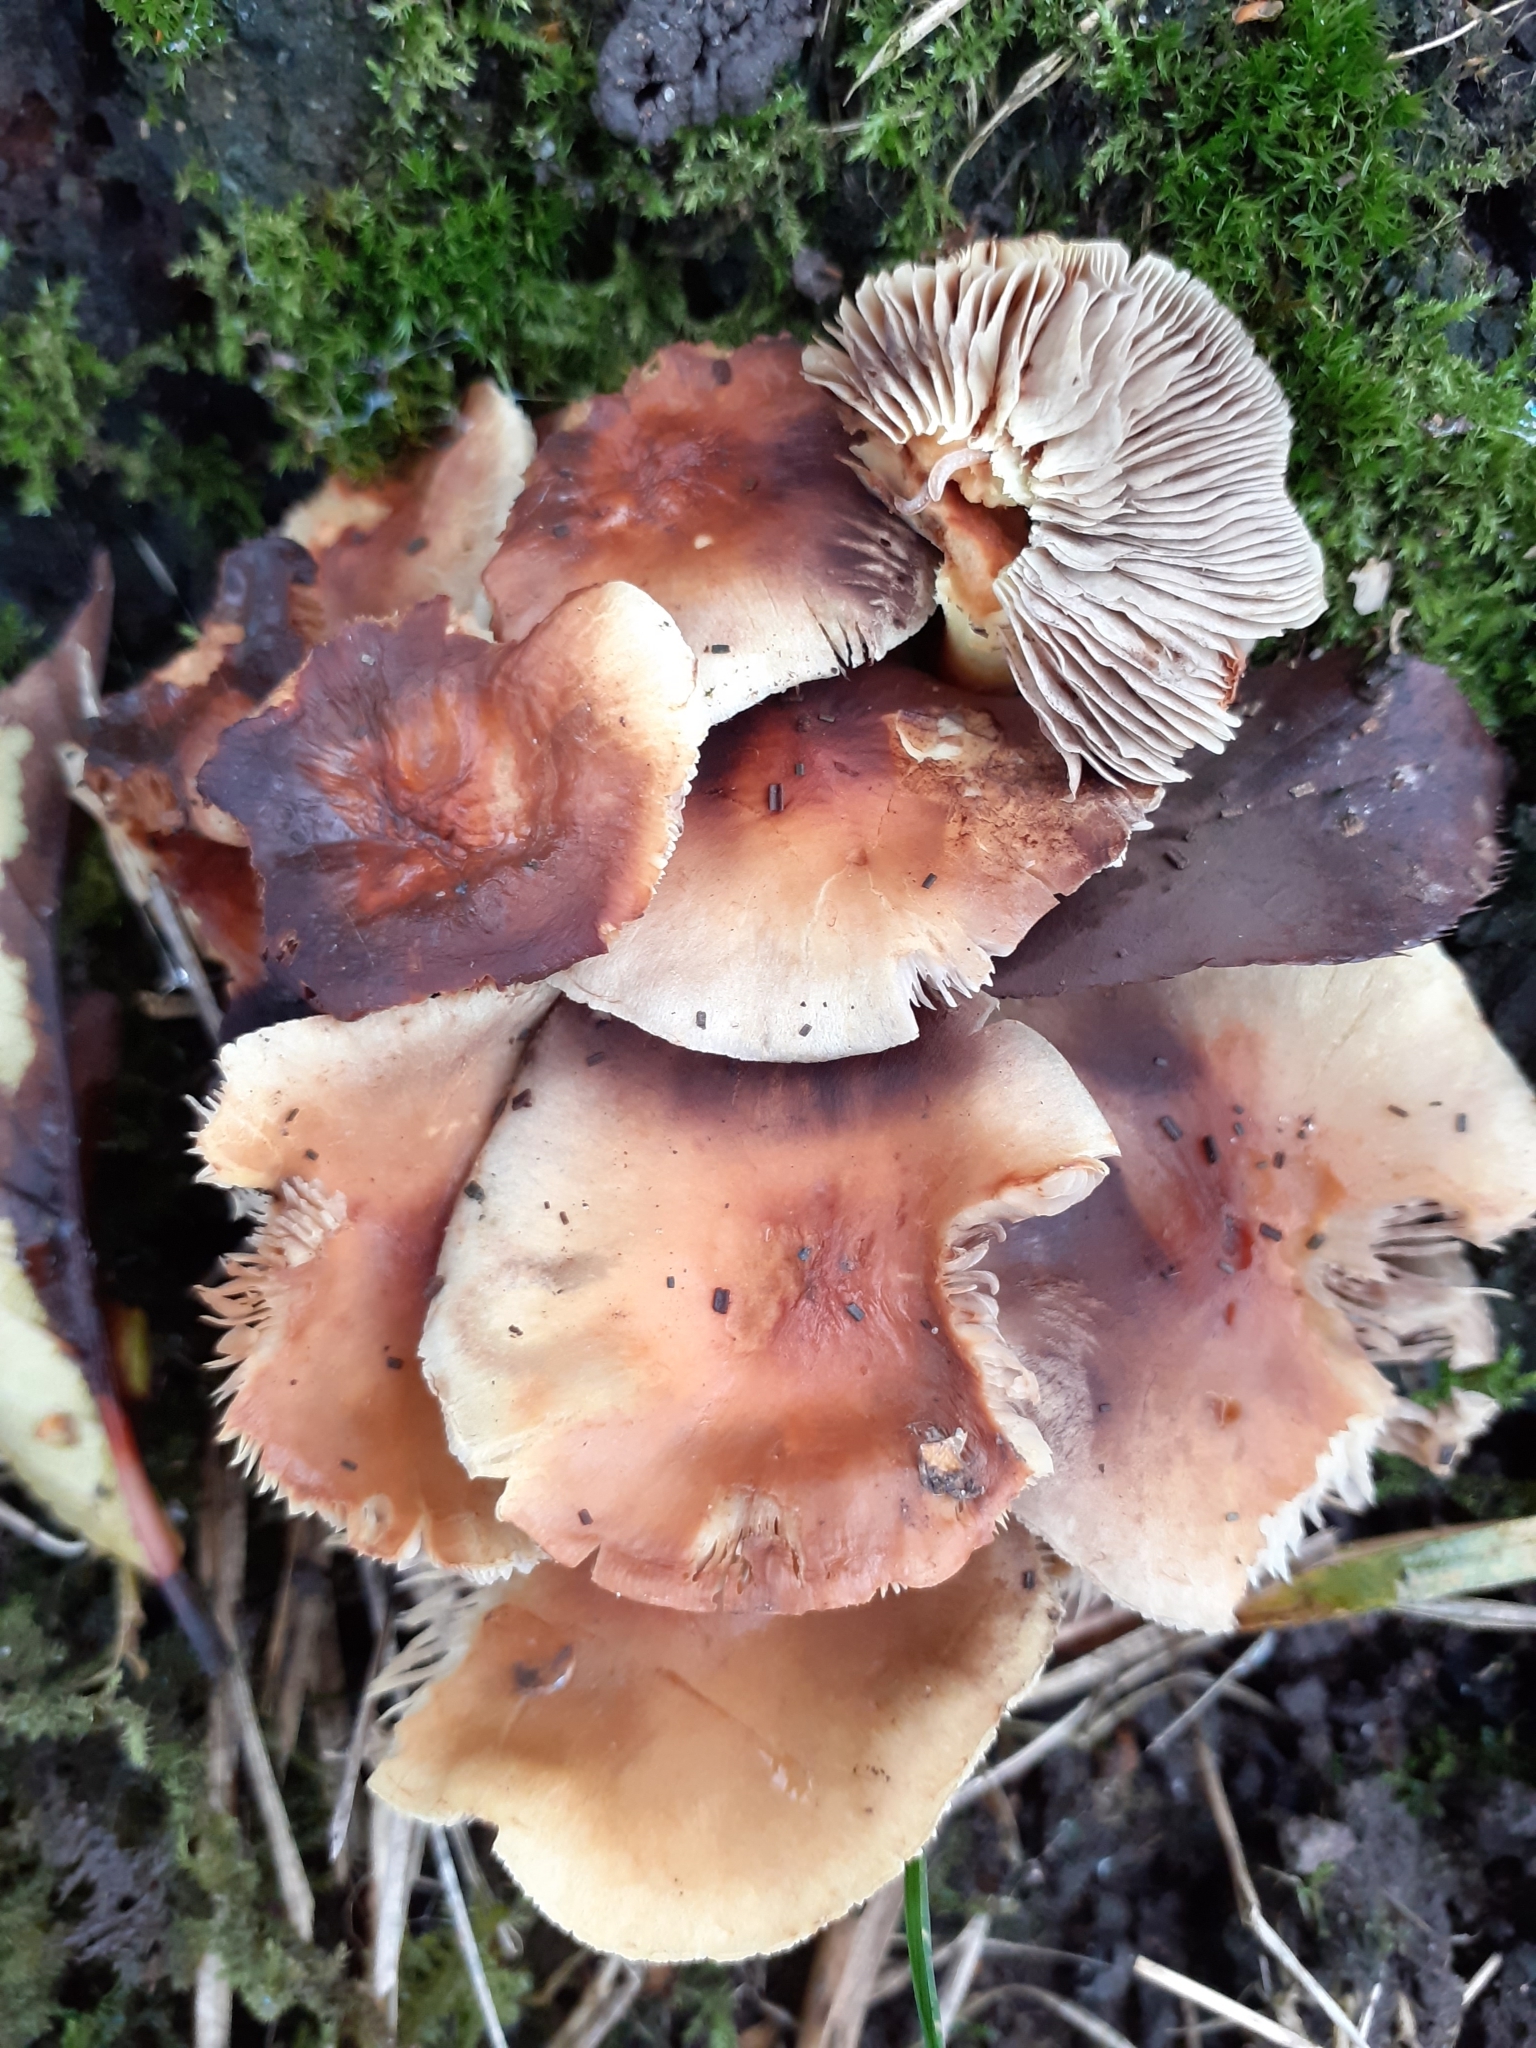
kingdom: Fungi
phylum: Basidiomycota
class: Agaricomycetes
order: Agaricales
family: Strophariaceae
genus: Hypholoma
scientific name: Hypholoma
